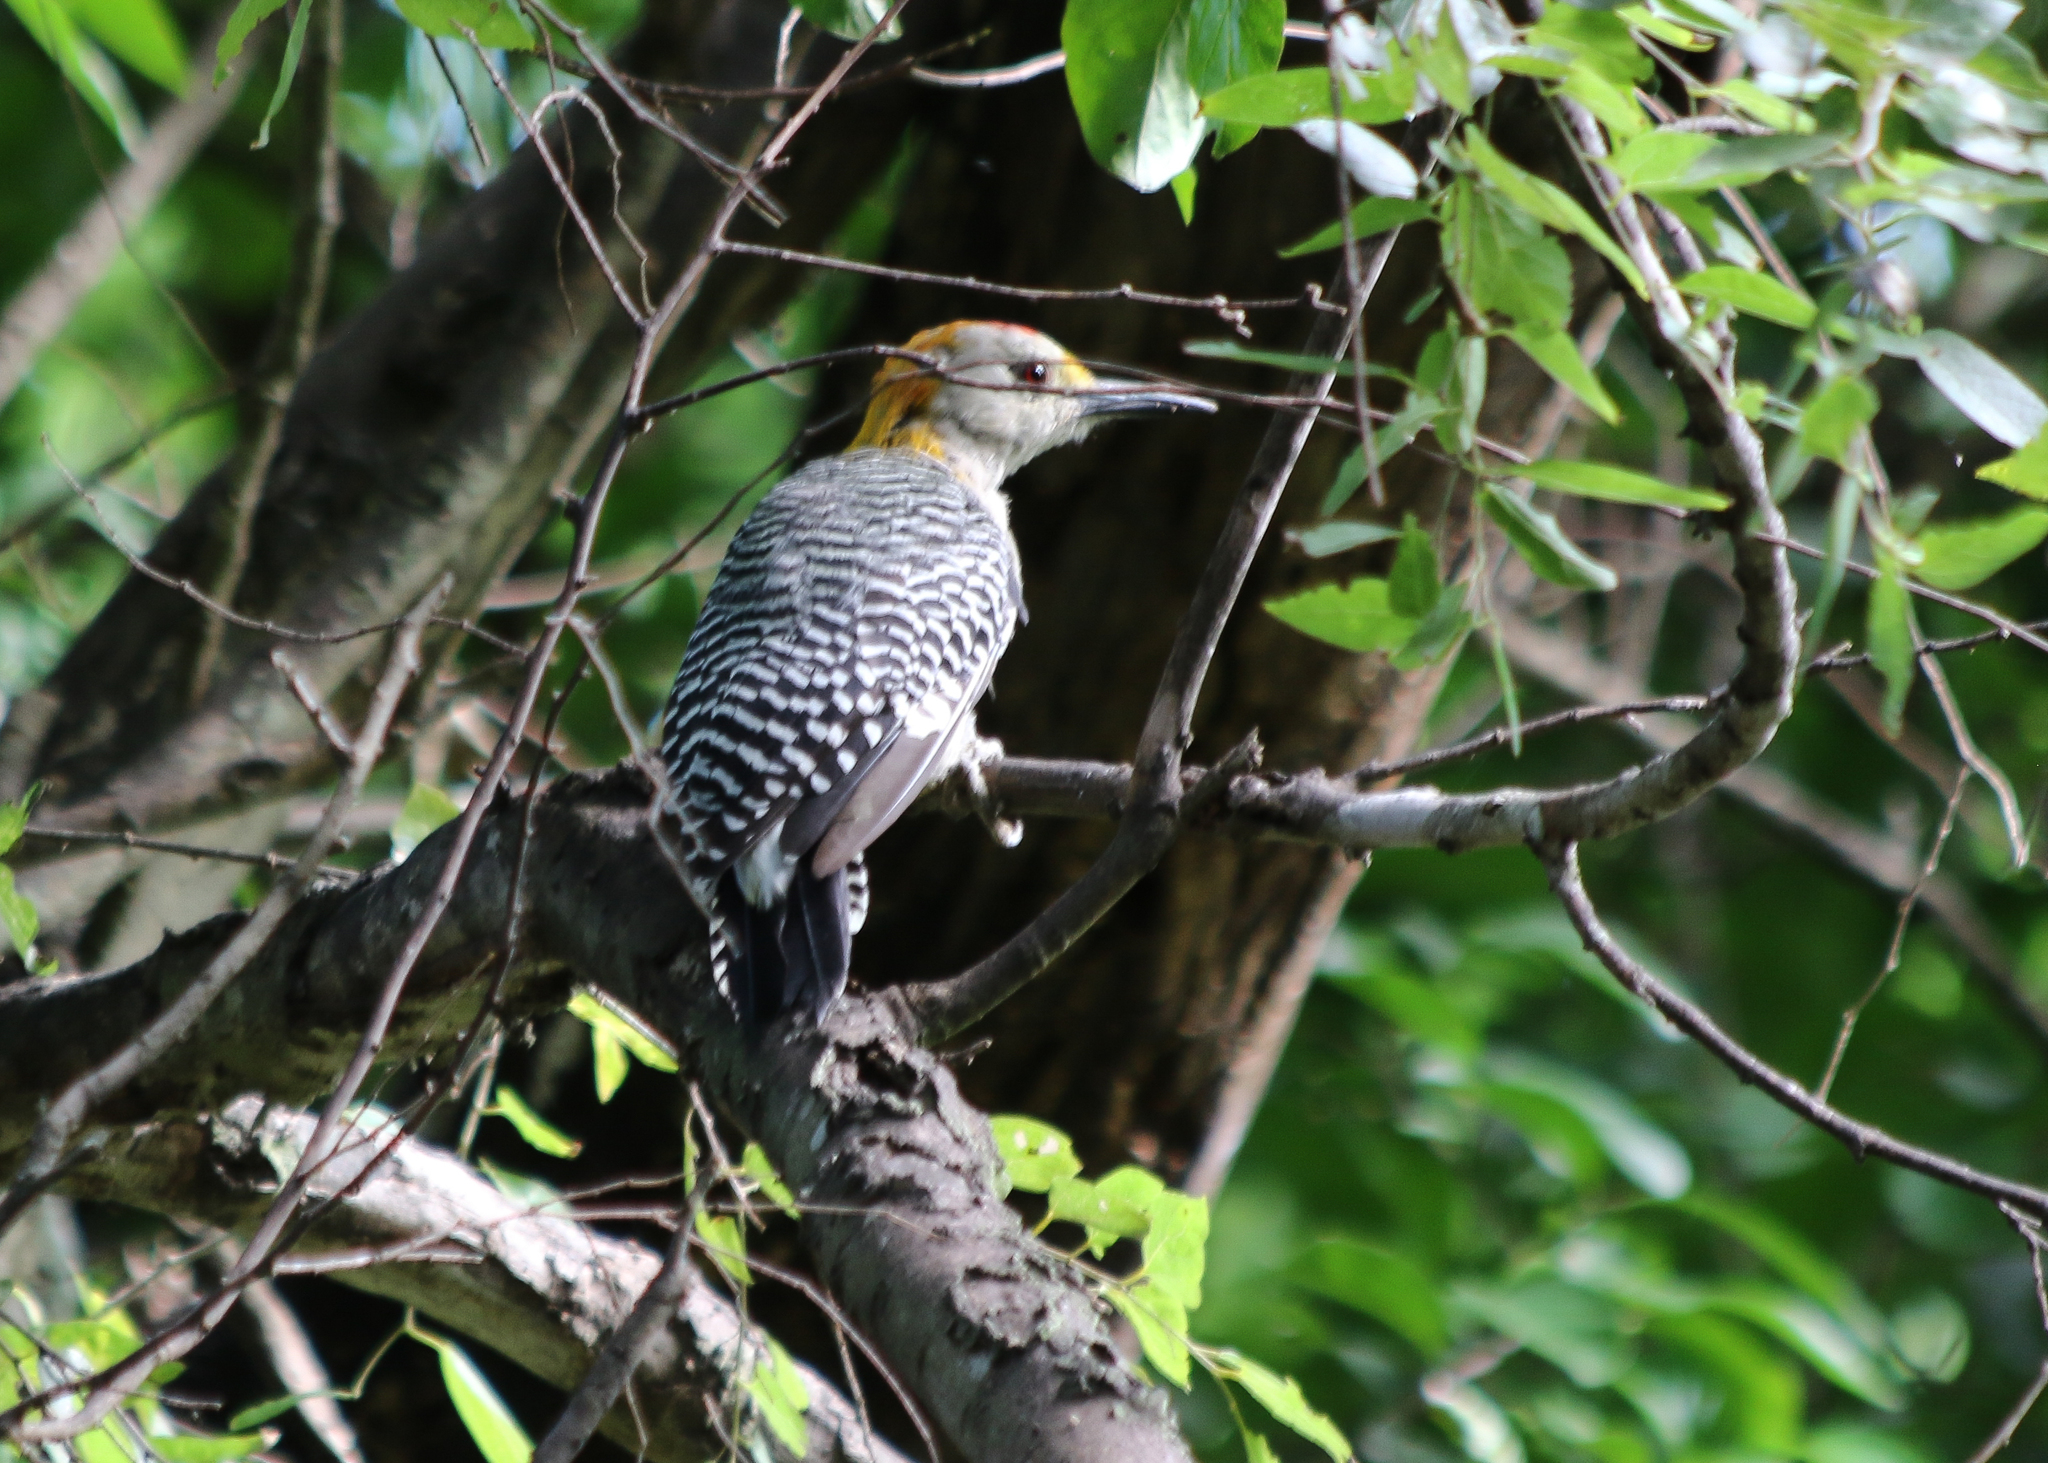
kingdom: Animalia
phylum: Chordata
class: Aves
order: Piciformes
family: Picidae
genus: Melanerpes
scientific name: Melanerpes aurifrons
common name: Golden-fronted woodpecker
